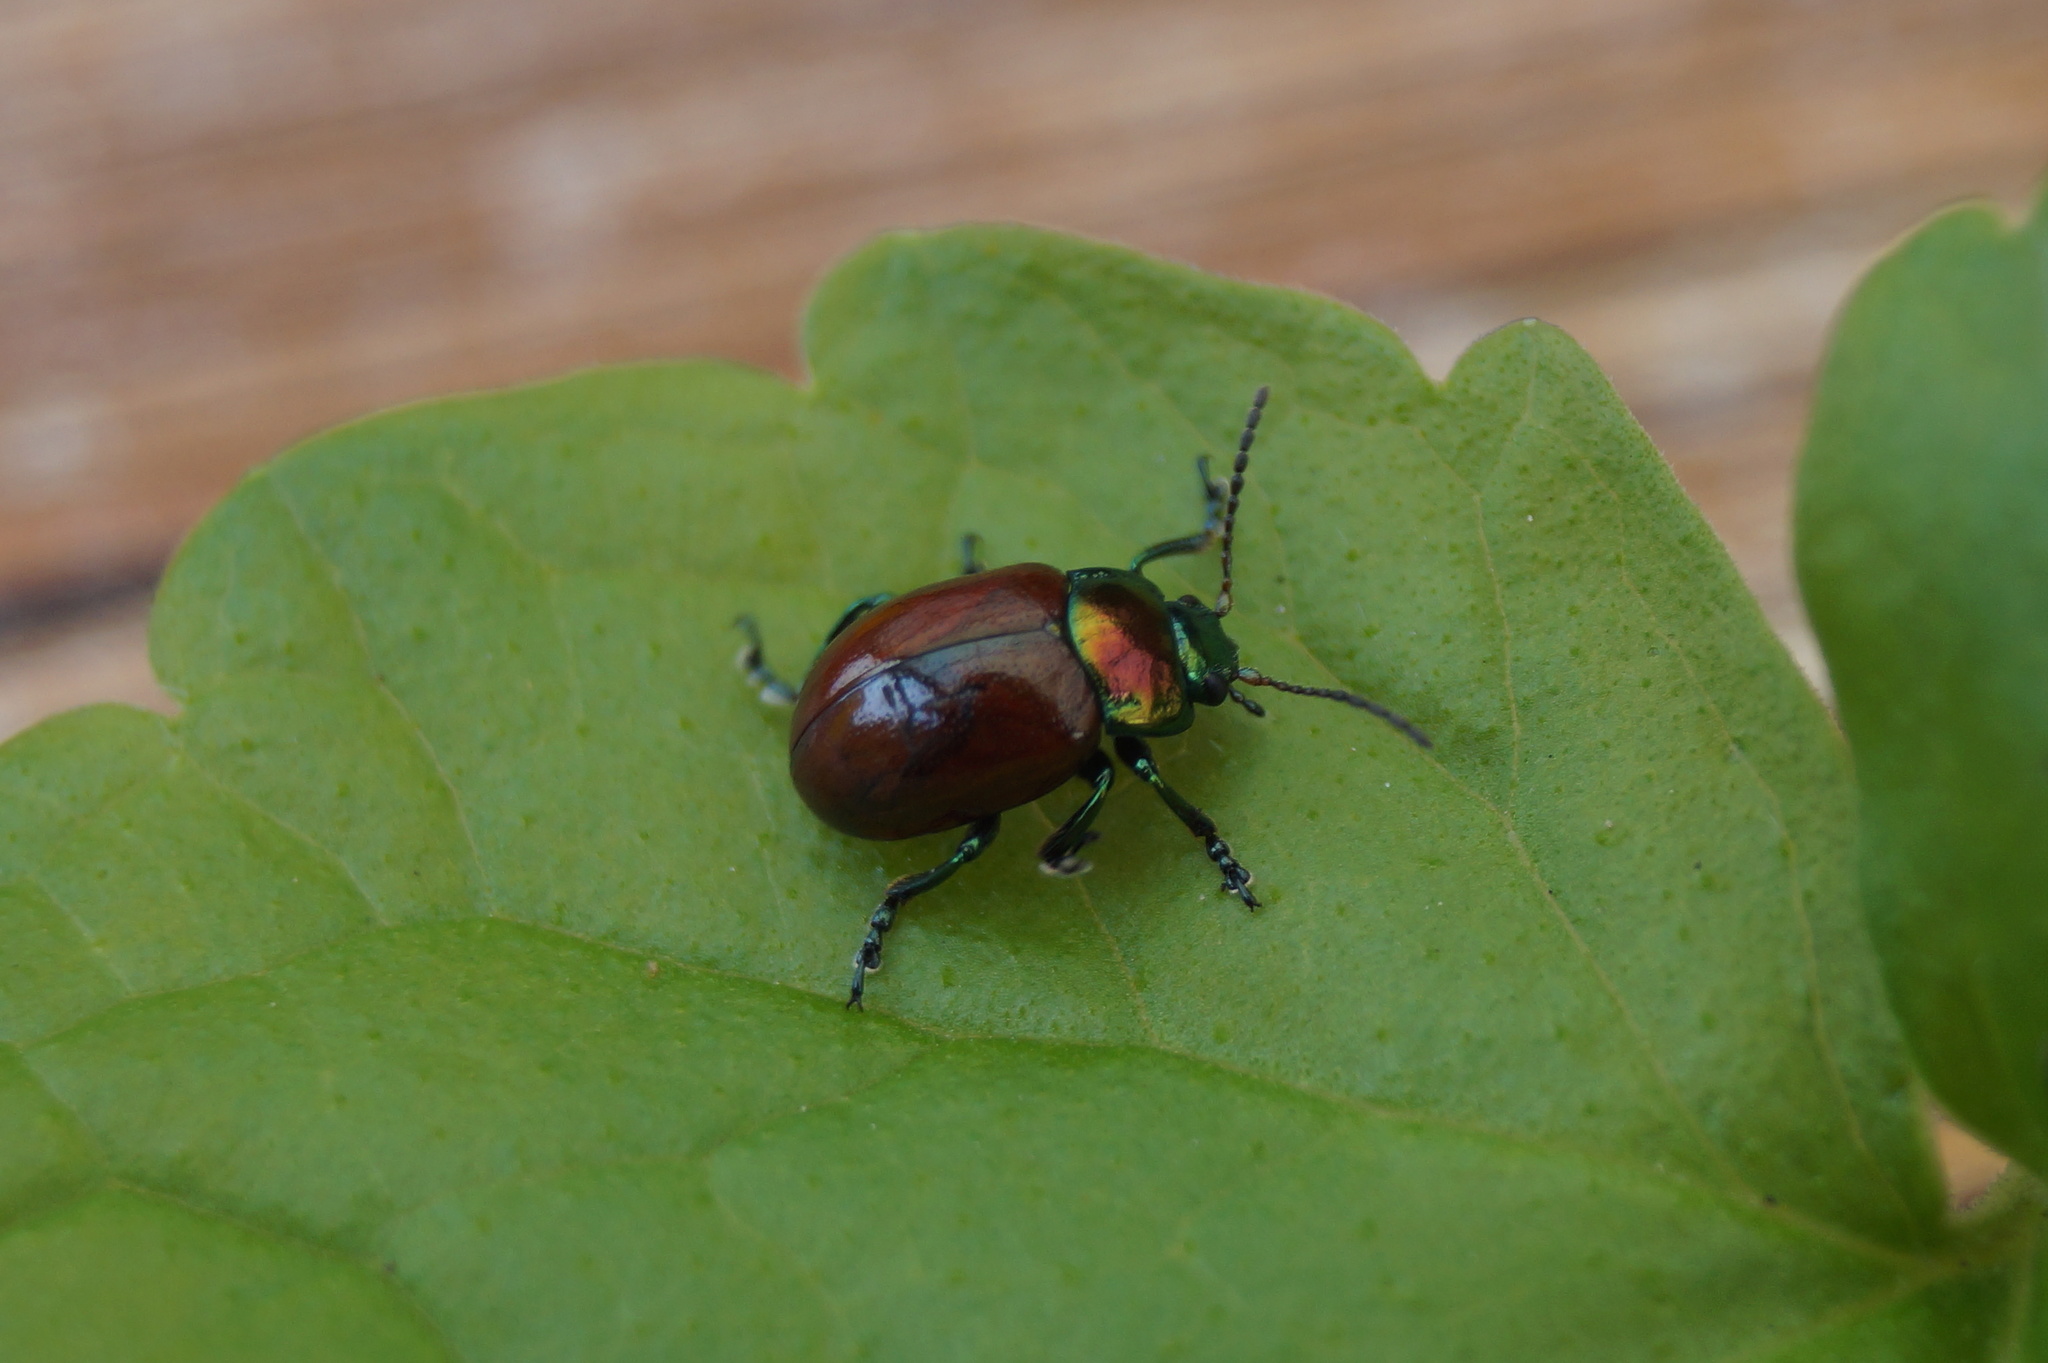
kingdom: Animalia
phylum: Arthropoda
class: Insecta
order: Coleoptera
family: Chrysomelidae
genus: Chrysomela
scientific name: Chrysomela polita
